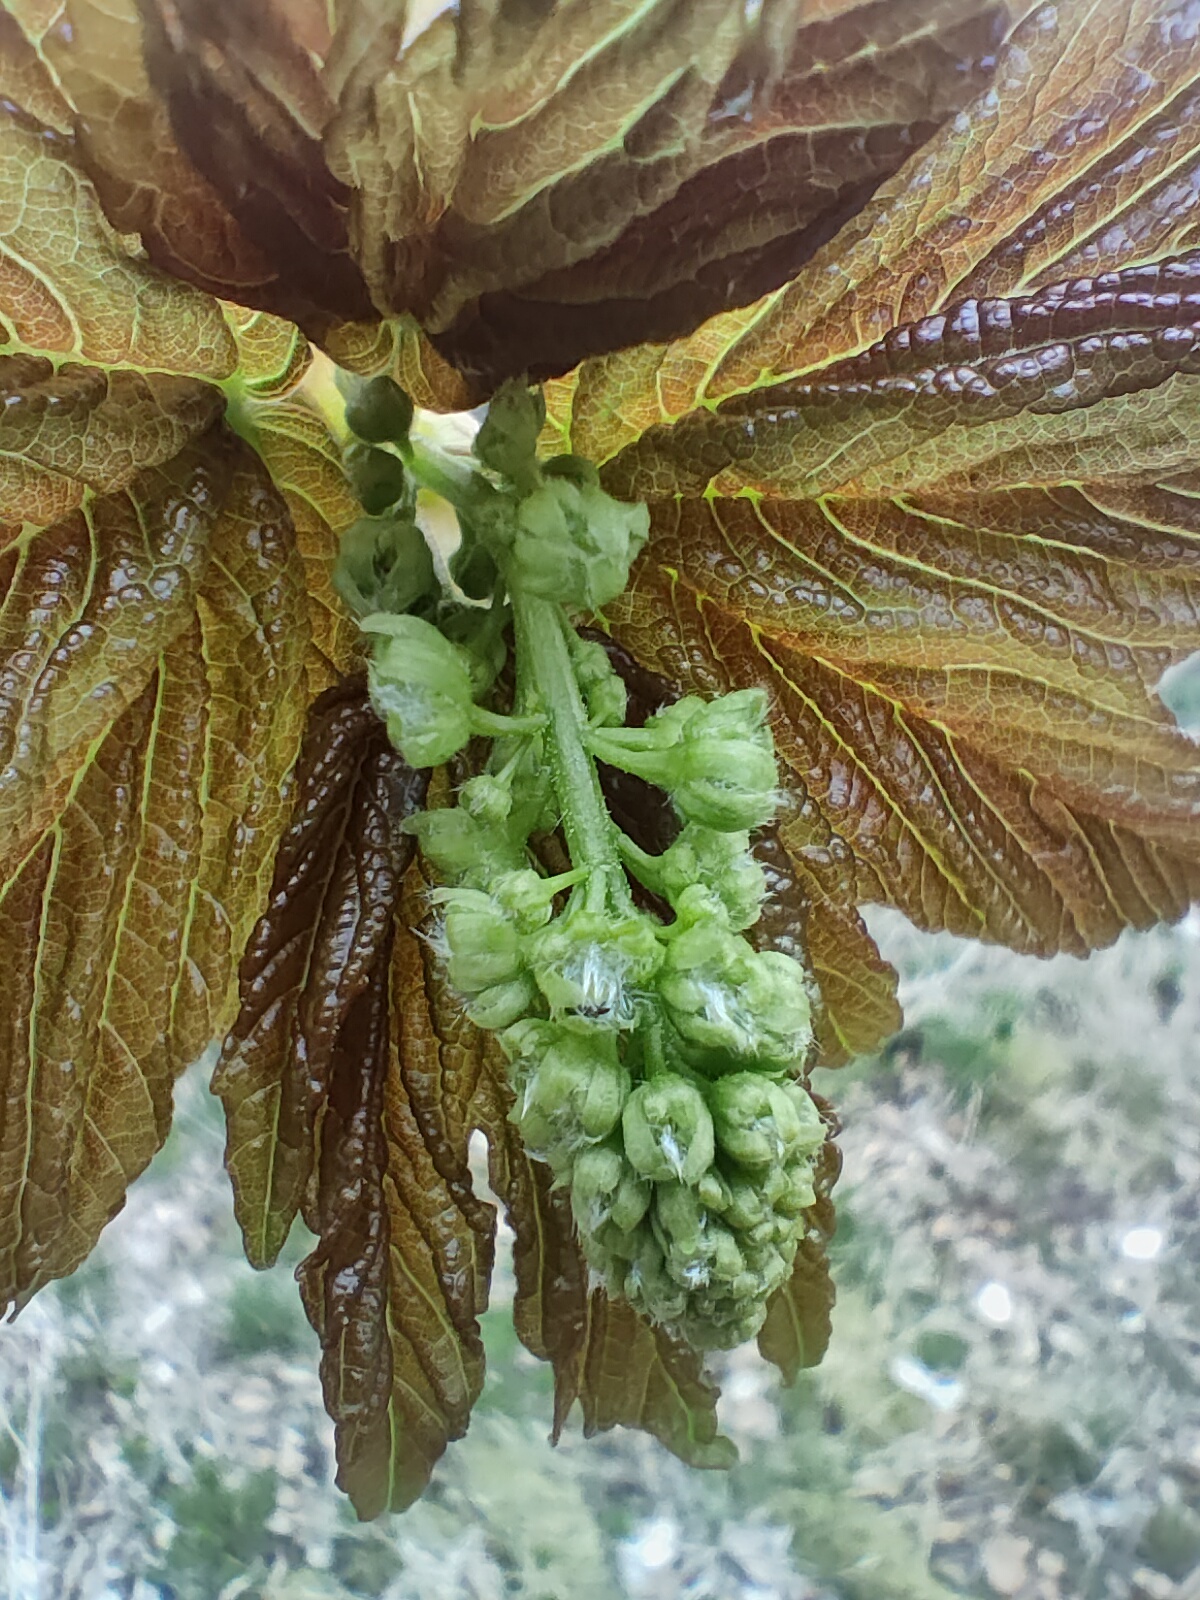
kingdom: Plantae
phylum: Tracheophyta
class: Magnoliopsida
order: Sapindales
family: Sapindaceae
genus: Acer
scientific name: Acer pseudoplatanus
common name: Sycamore
